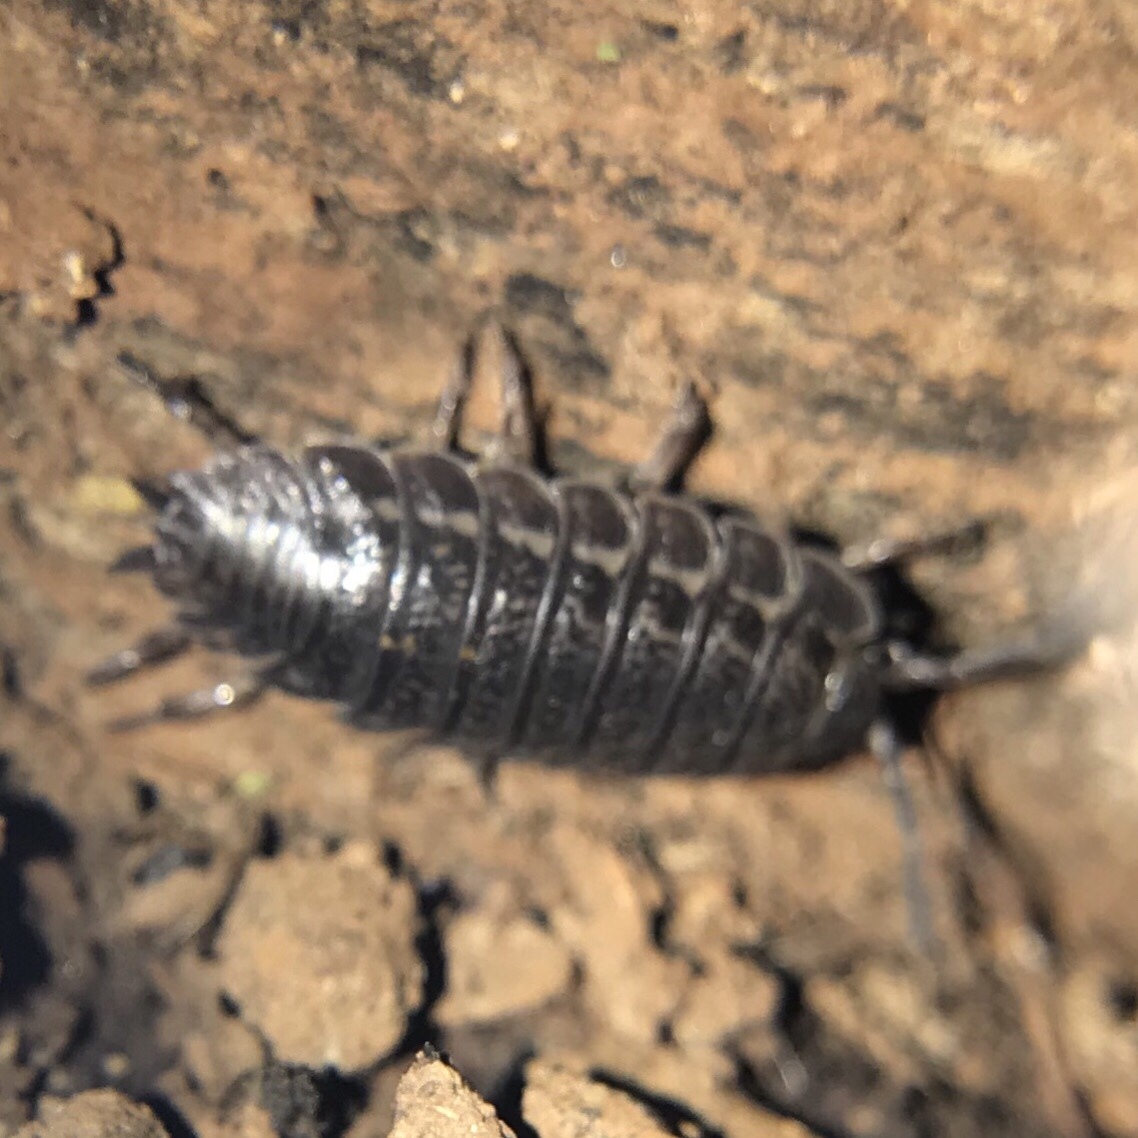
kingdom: Animalia
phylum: Arthropoda
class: Malacostraca
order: Isopoda
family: Trachelipodidae
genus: Trachelipus
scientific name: Trachelipus rathkii
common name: Isopod
